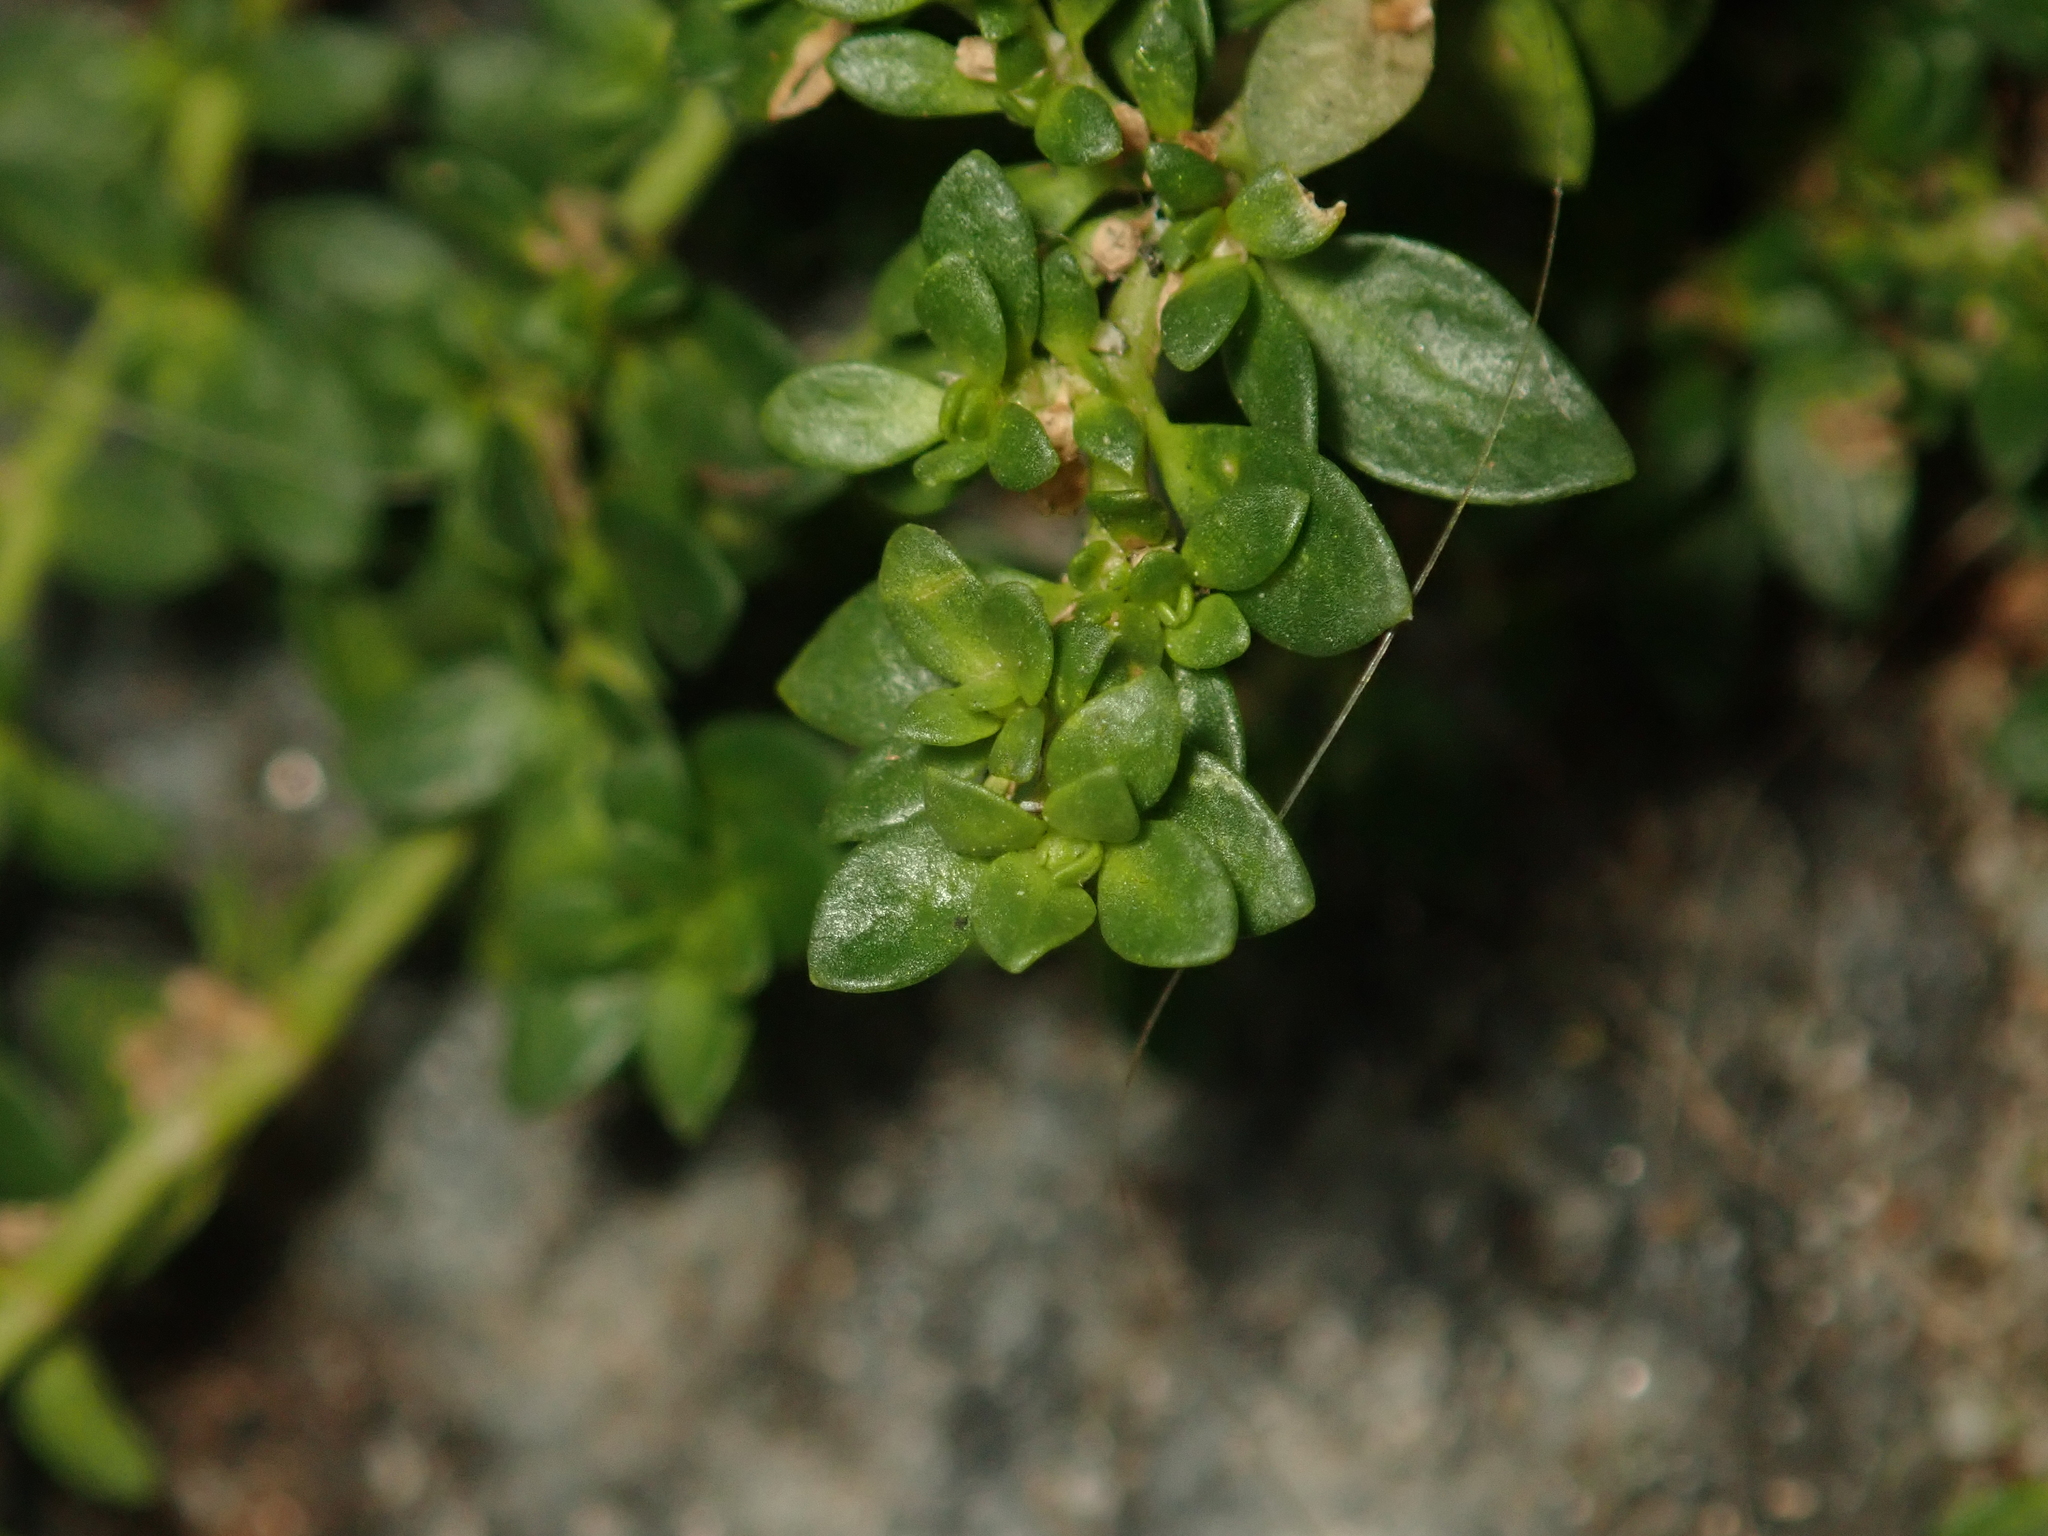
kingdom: Plantae
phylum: Tracheophyta
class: Magnoliopsida
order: Caryophyllales
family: Caryophyllaceae
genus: Herniaria
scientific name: Herniaria glabra
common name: Smooth rupturewort
